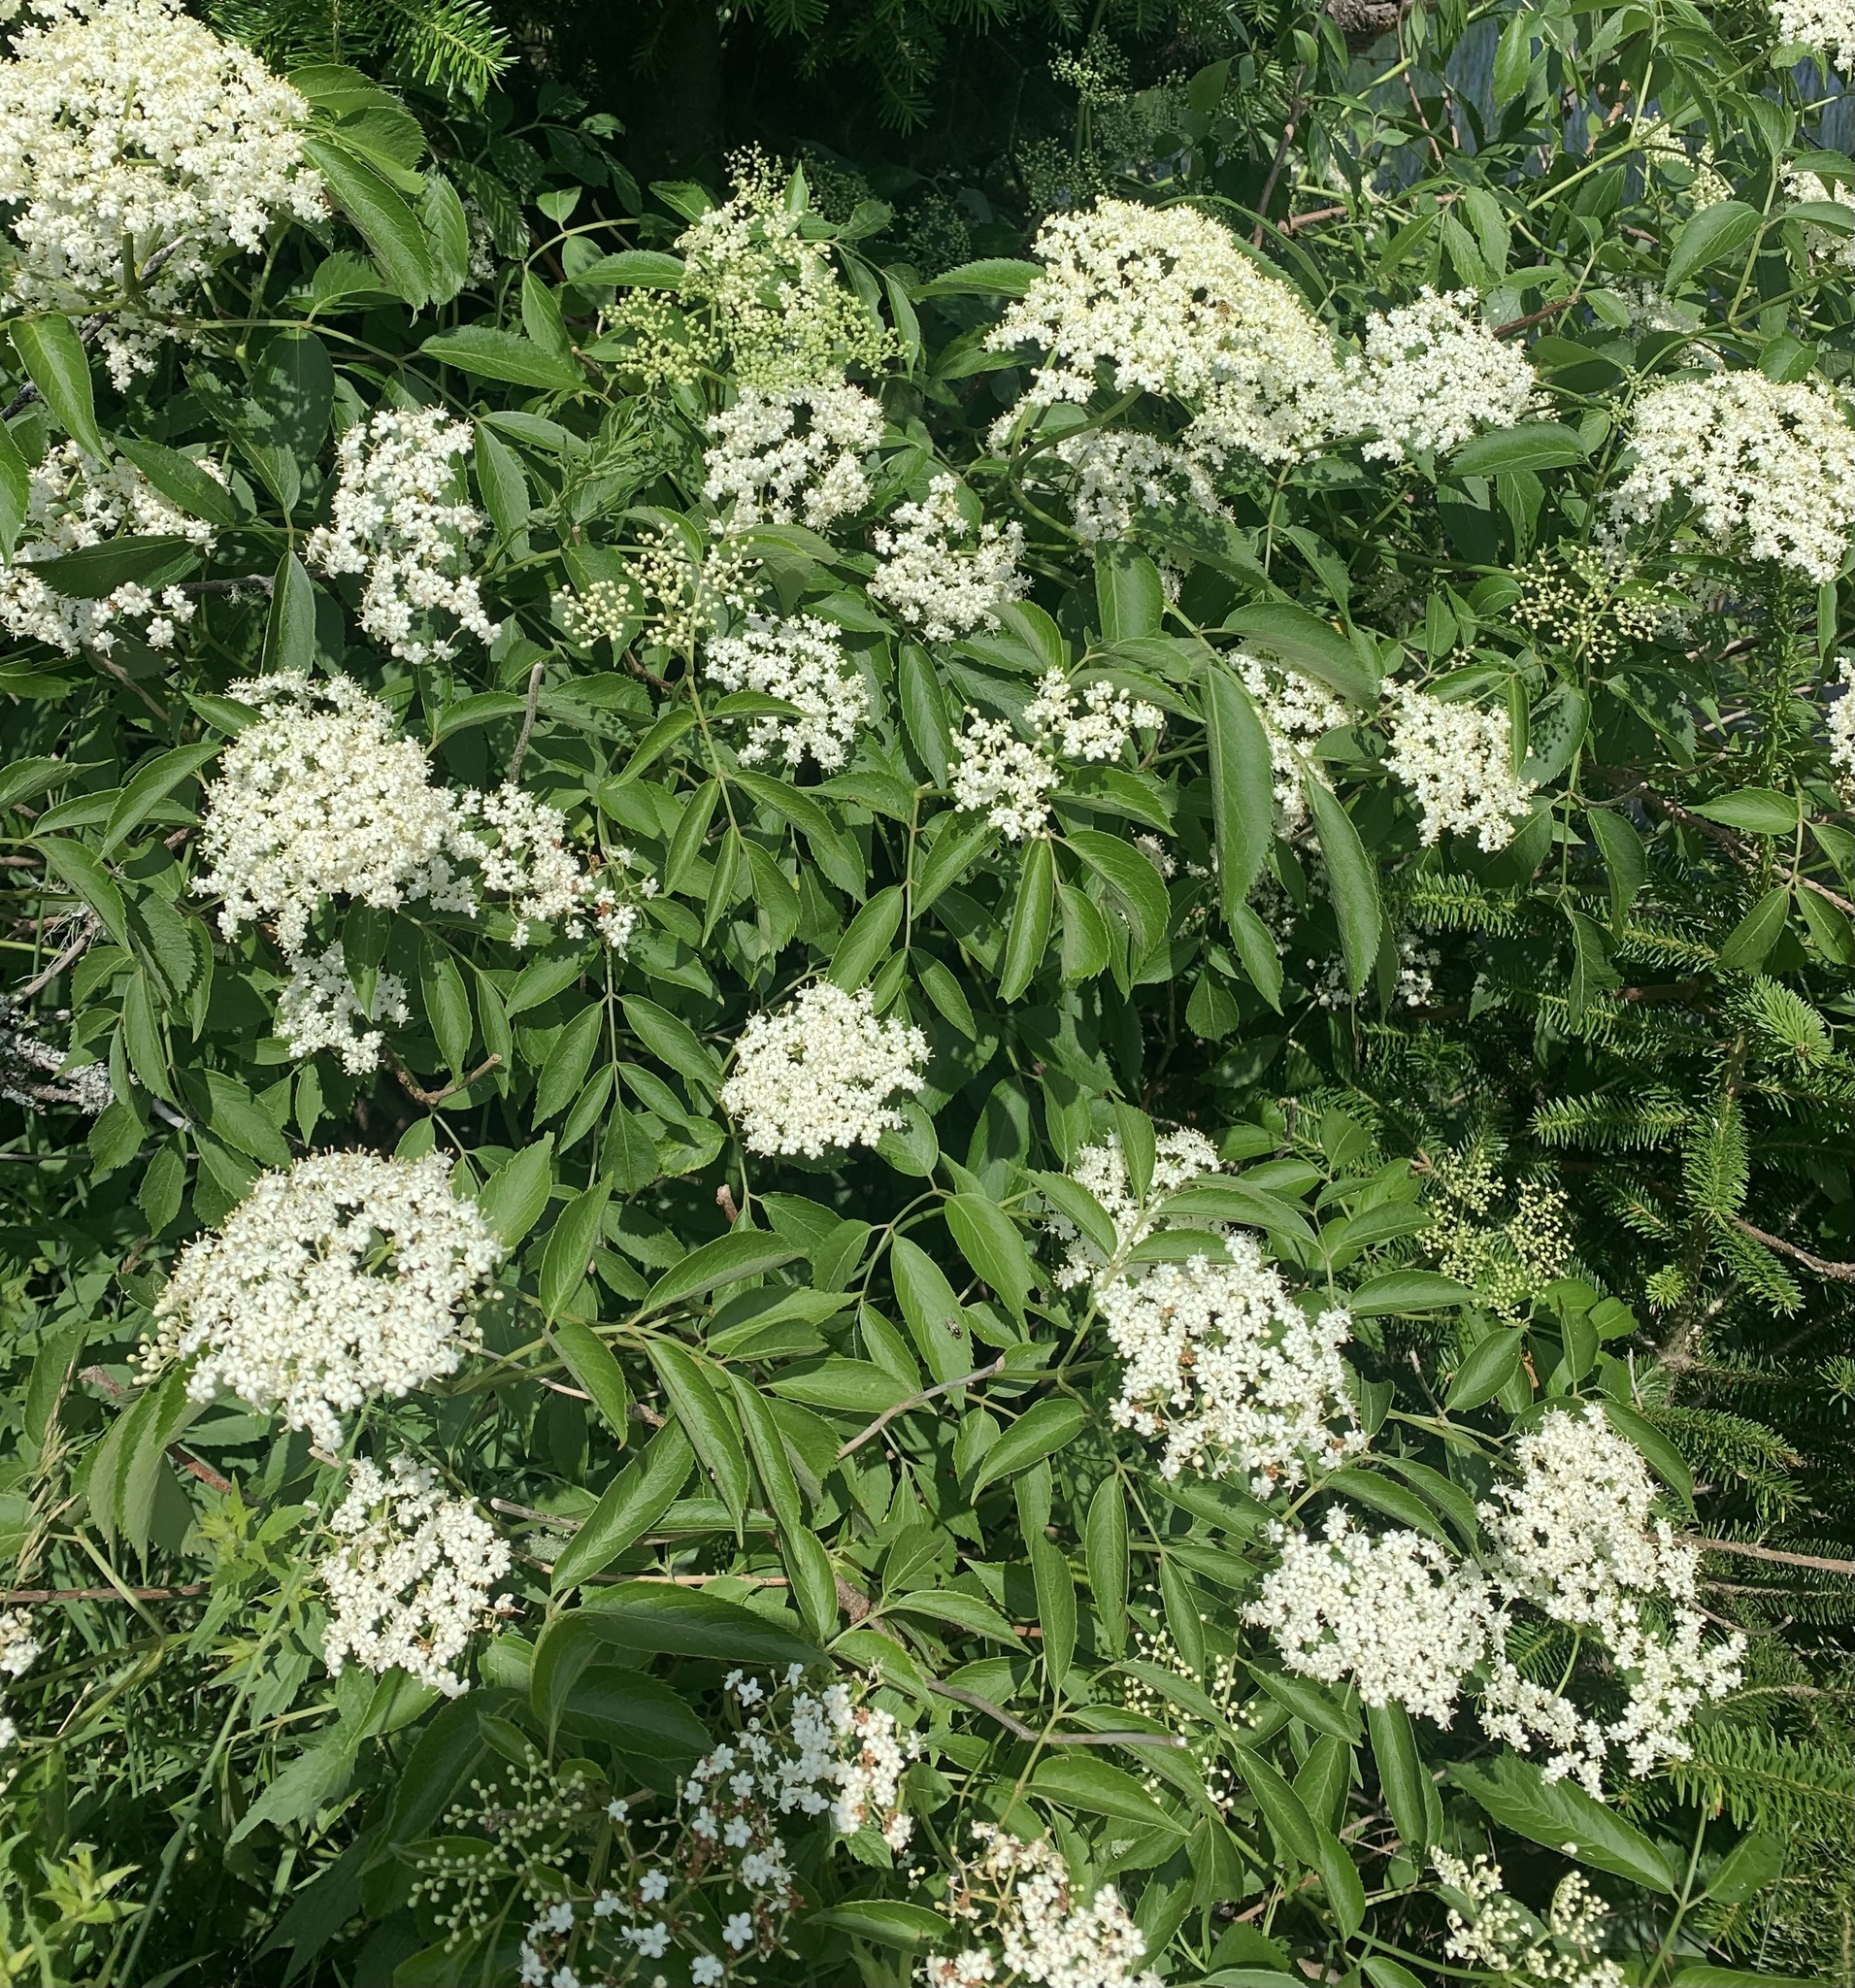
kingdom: Plantae
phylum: Tracheophyta
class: Magnoliopsida
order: Dipsacales
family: Viburnaceae
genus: Sambucus
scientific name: Sambucus canadensis
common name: American elder
